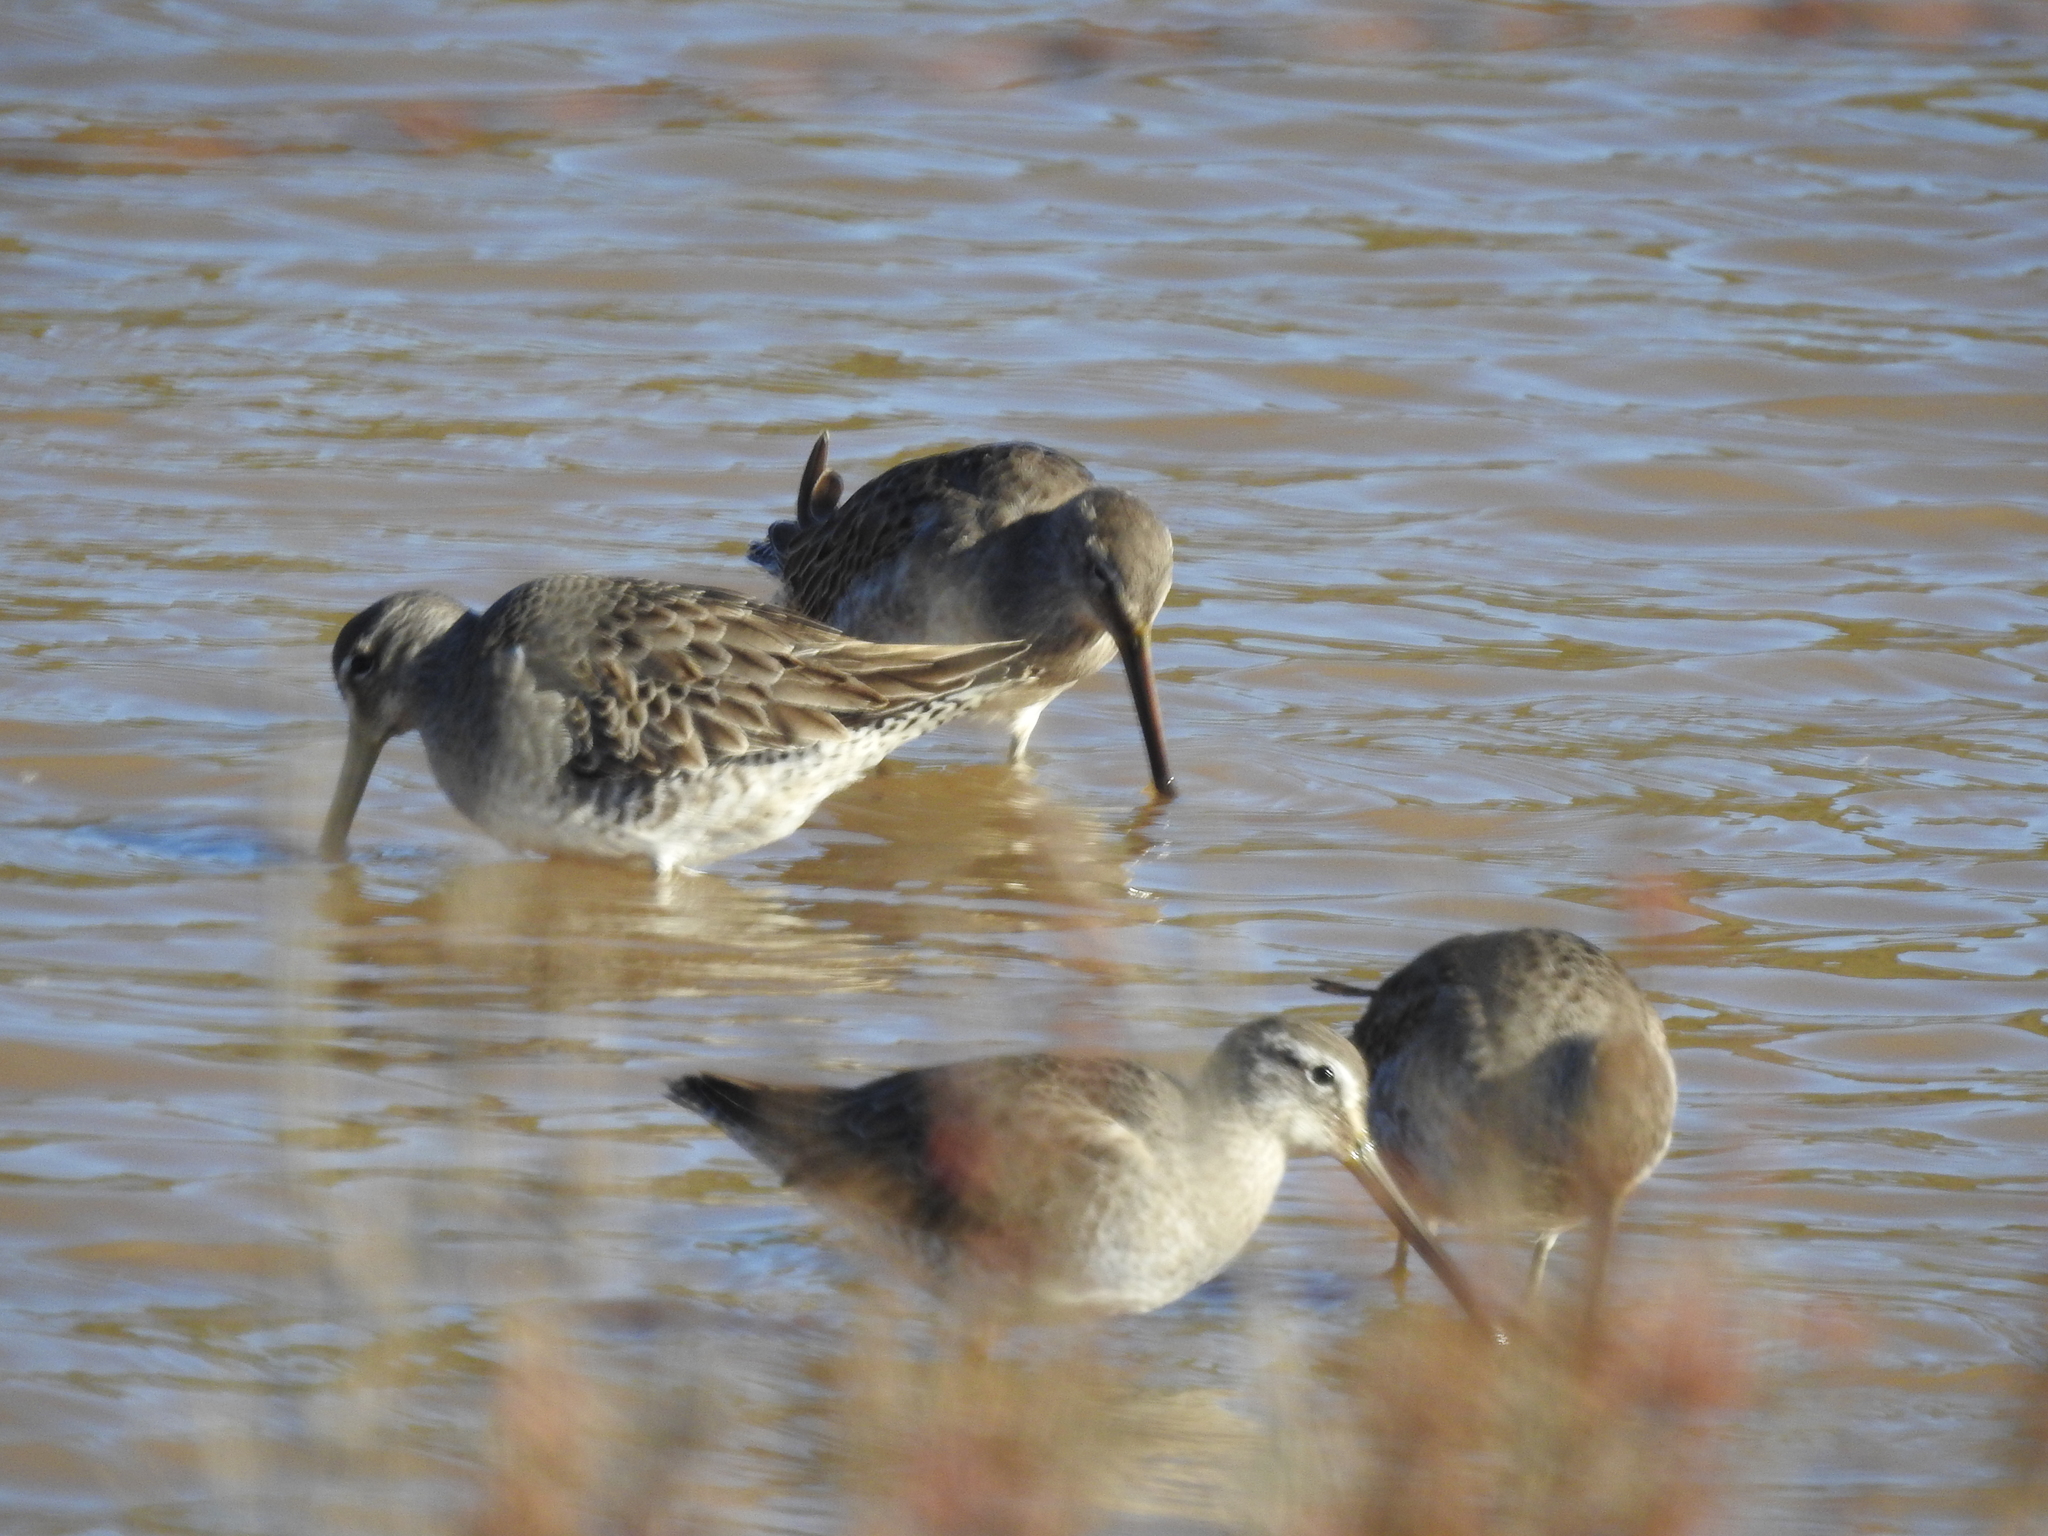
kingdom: Animalia
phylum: Chordata
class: Aves
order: Charadriiformes
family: Scolopacidae
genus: Limnodromus
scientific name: Limnodromus scolopaceus
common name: Long-billed dowitcher
